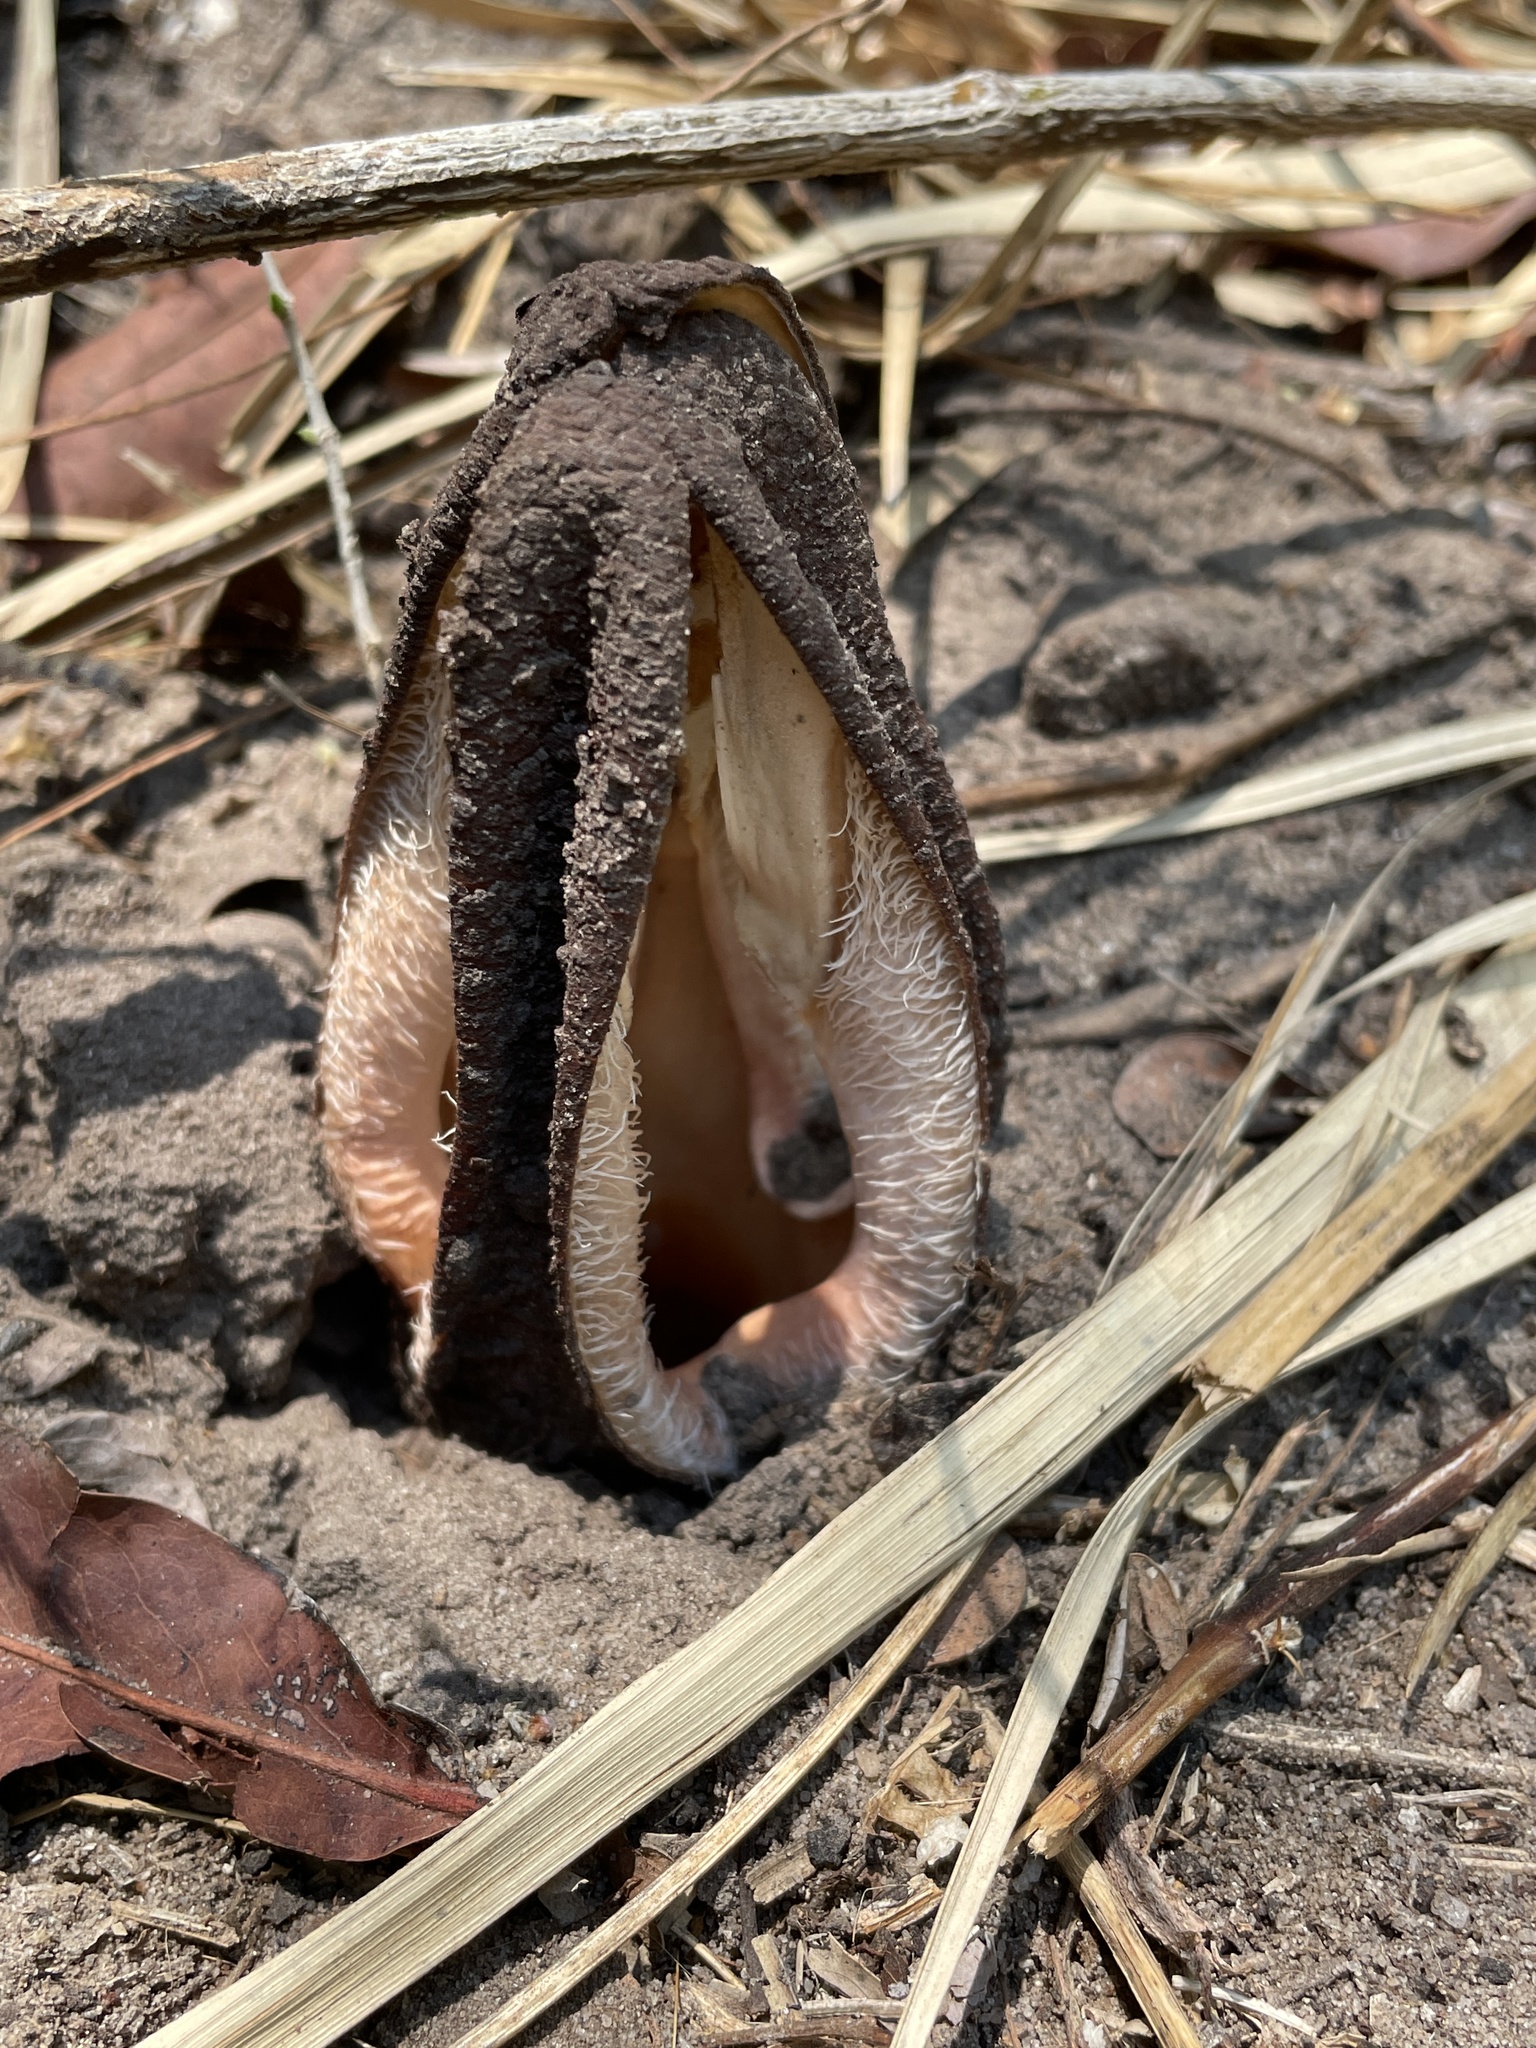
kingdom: Plantae
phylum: Tracheophyta
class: Magnoliopsida
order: Piperales
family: Hydnoraceae
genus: Hydnora
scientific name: Hydnora abyssinica
